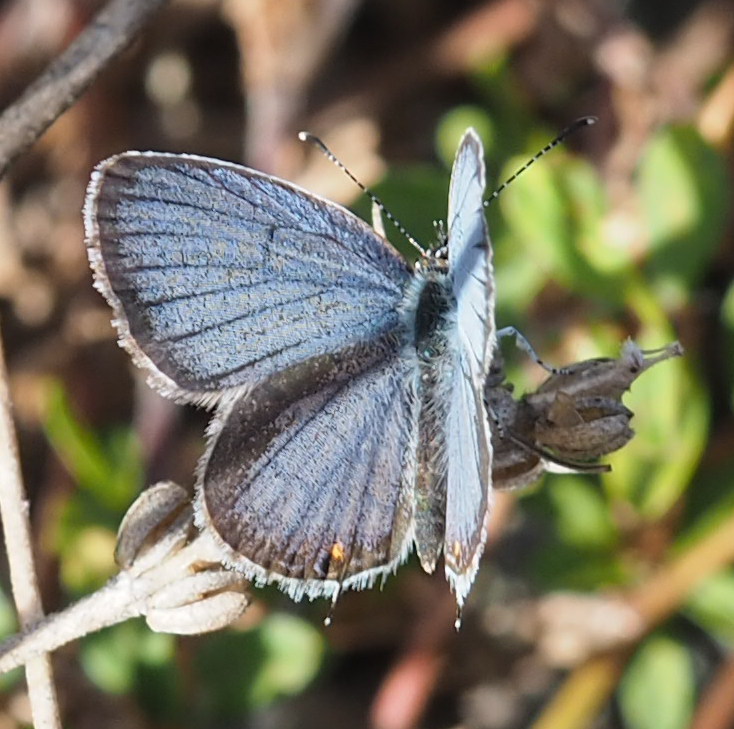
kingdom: Animalia
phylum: Arthropoda
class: Insecta
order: Lepidoptera
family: Lycaenidae
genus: Elkalyce
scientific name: Elkalyce comyntas
